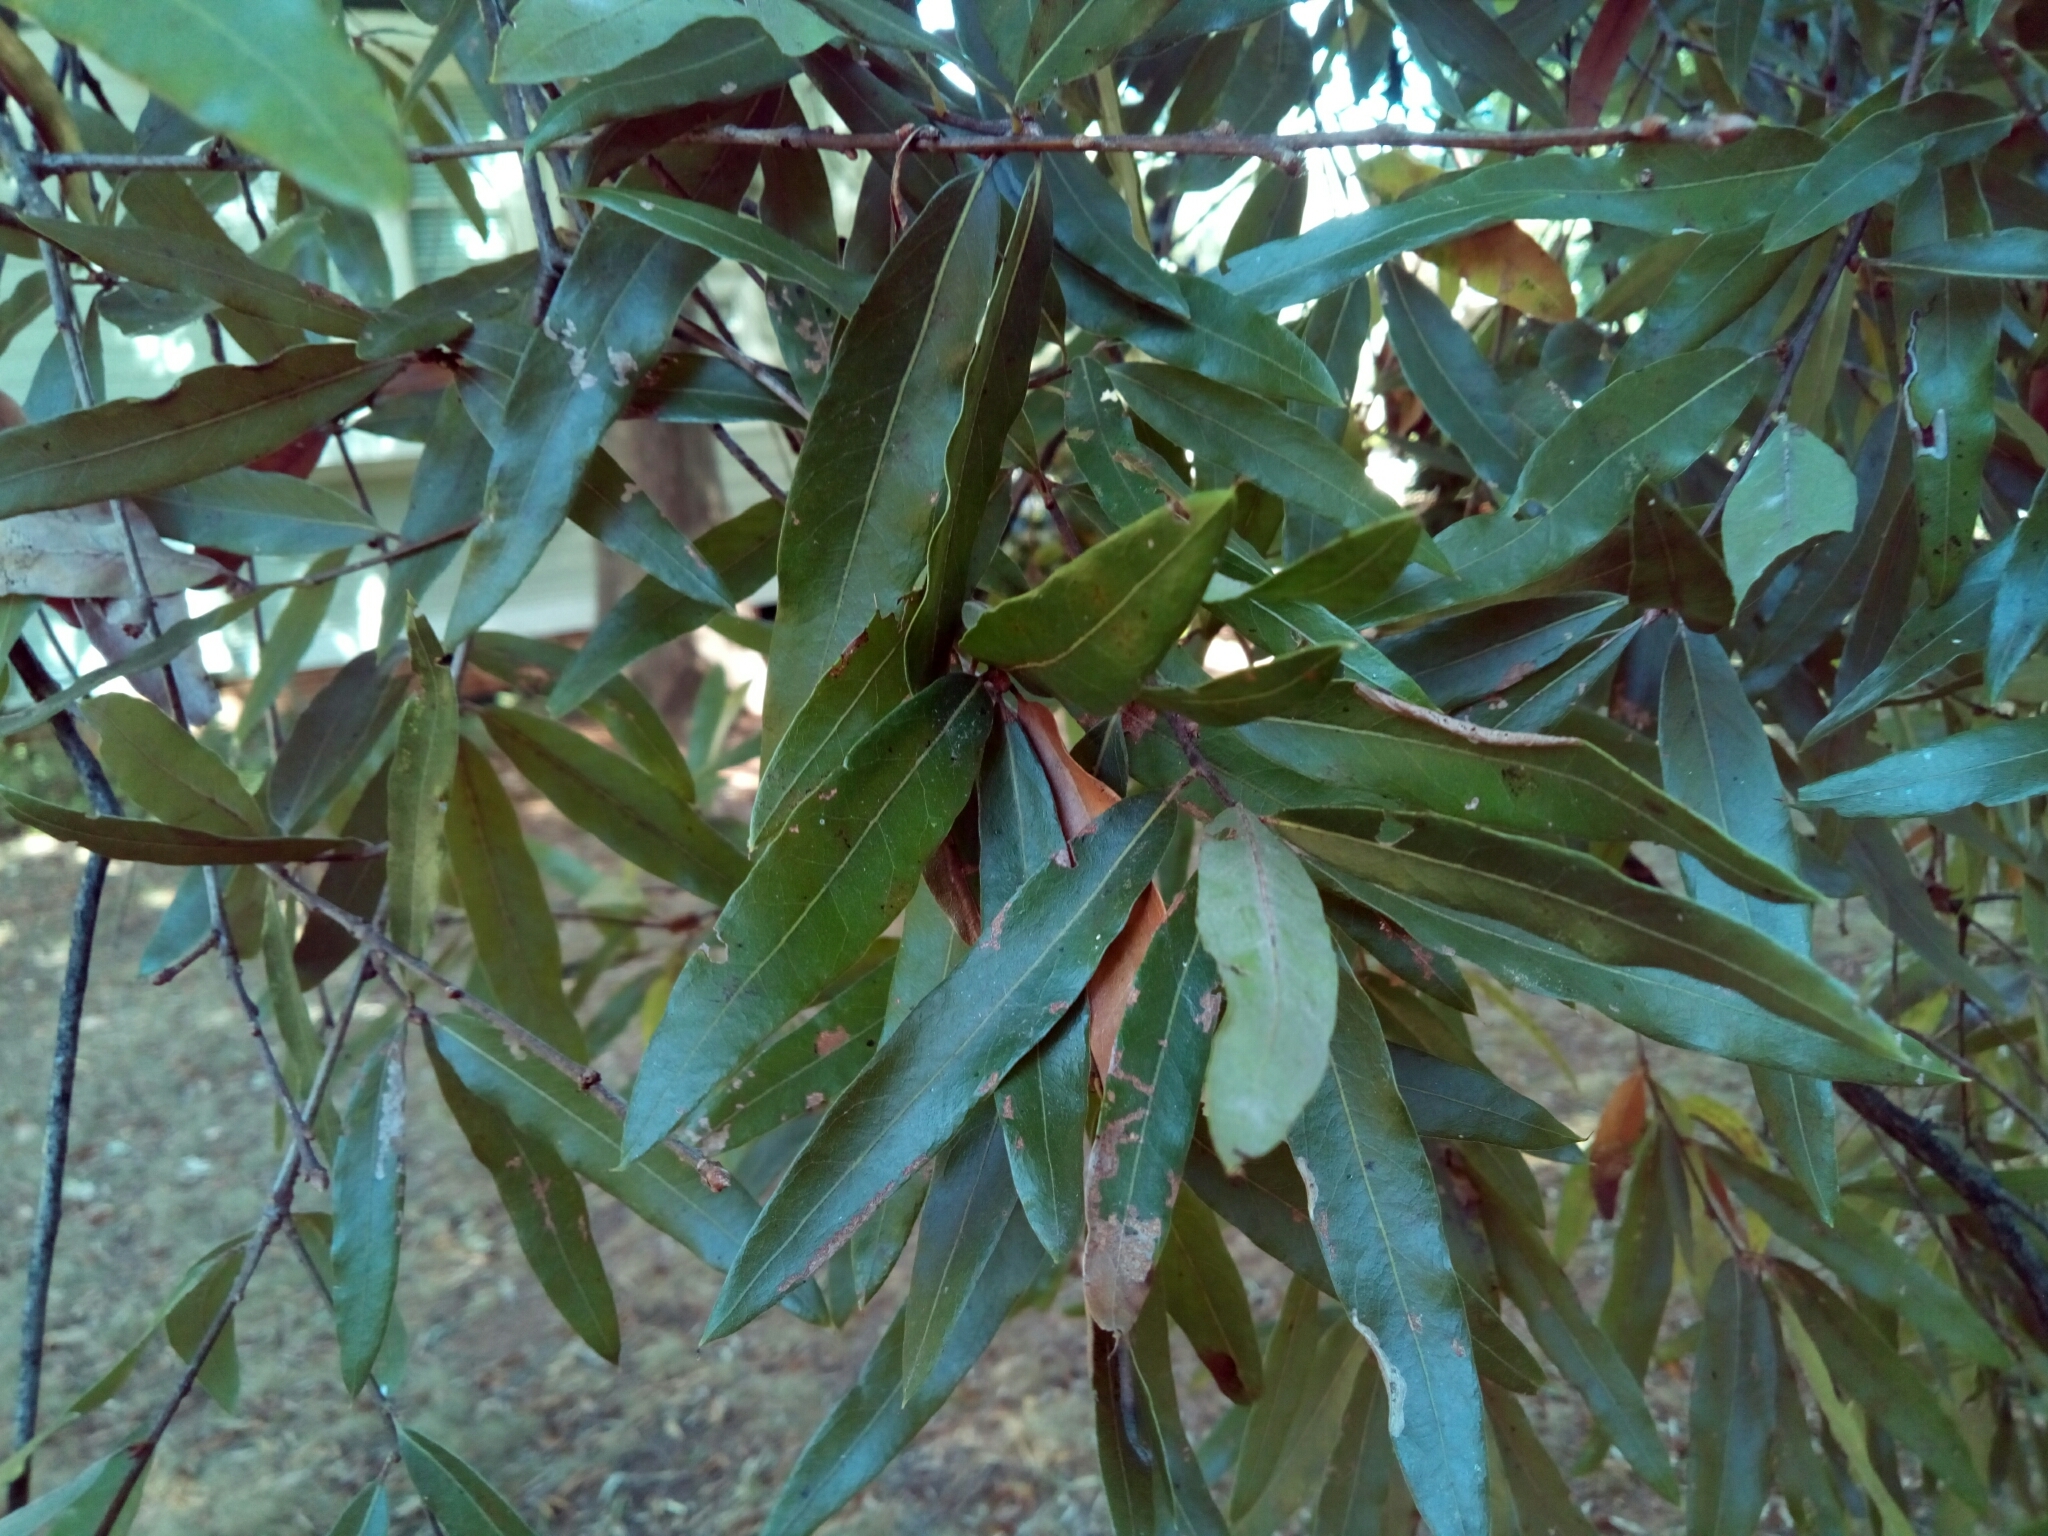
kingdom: Plantae
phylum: Tracheophyta
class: Magnoliopsida
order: Fagales
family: Fagaceae
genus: Quercus
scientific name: Quercus phellos
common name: Willow oak
